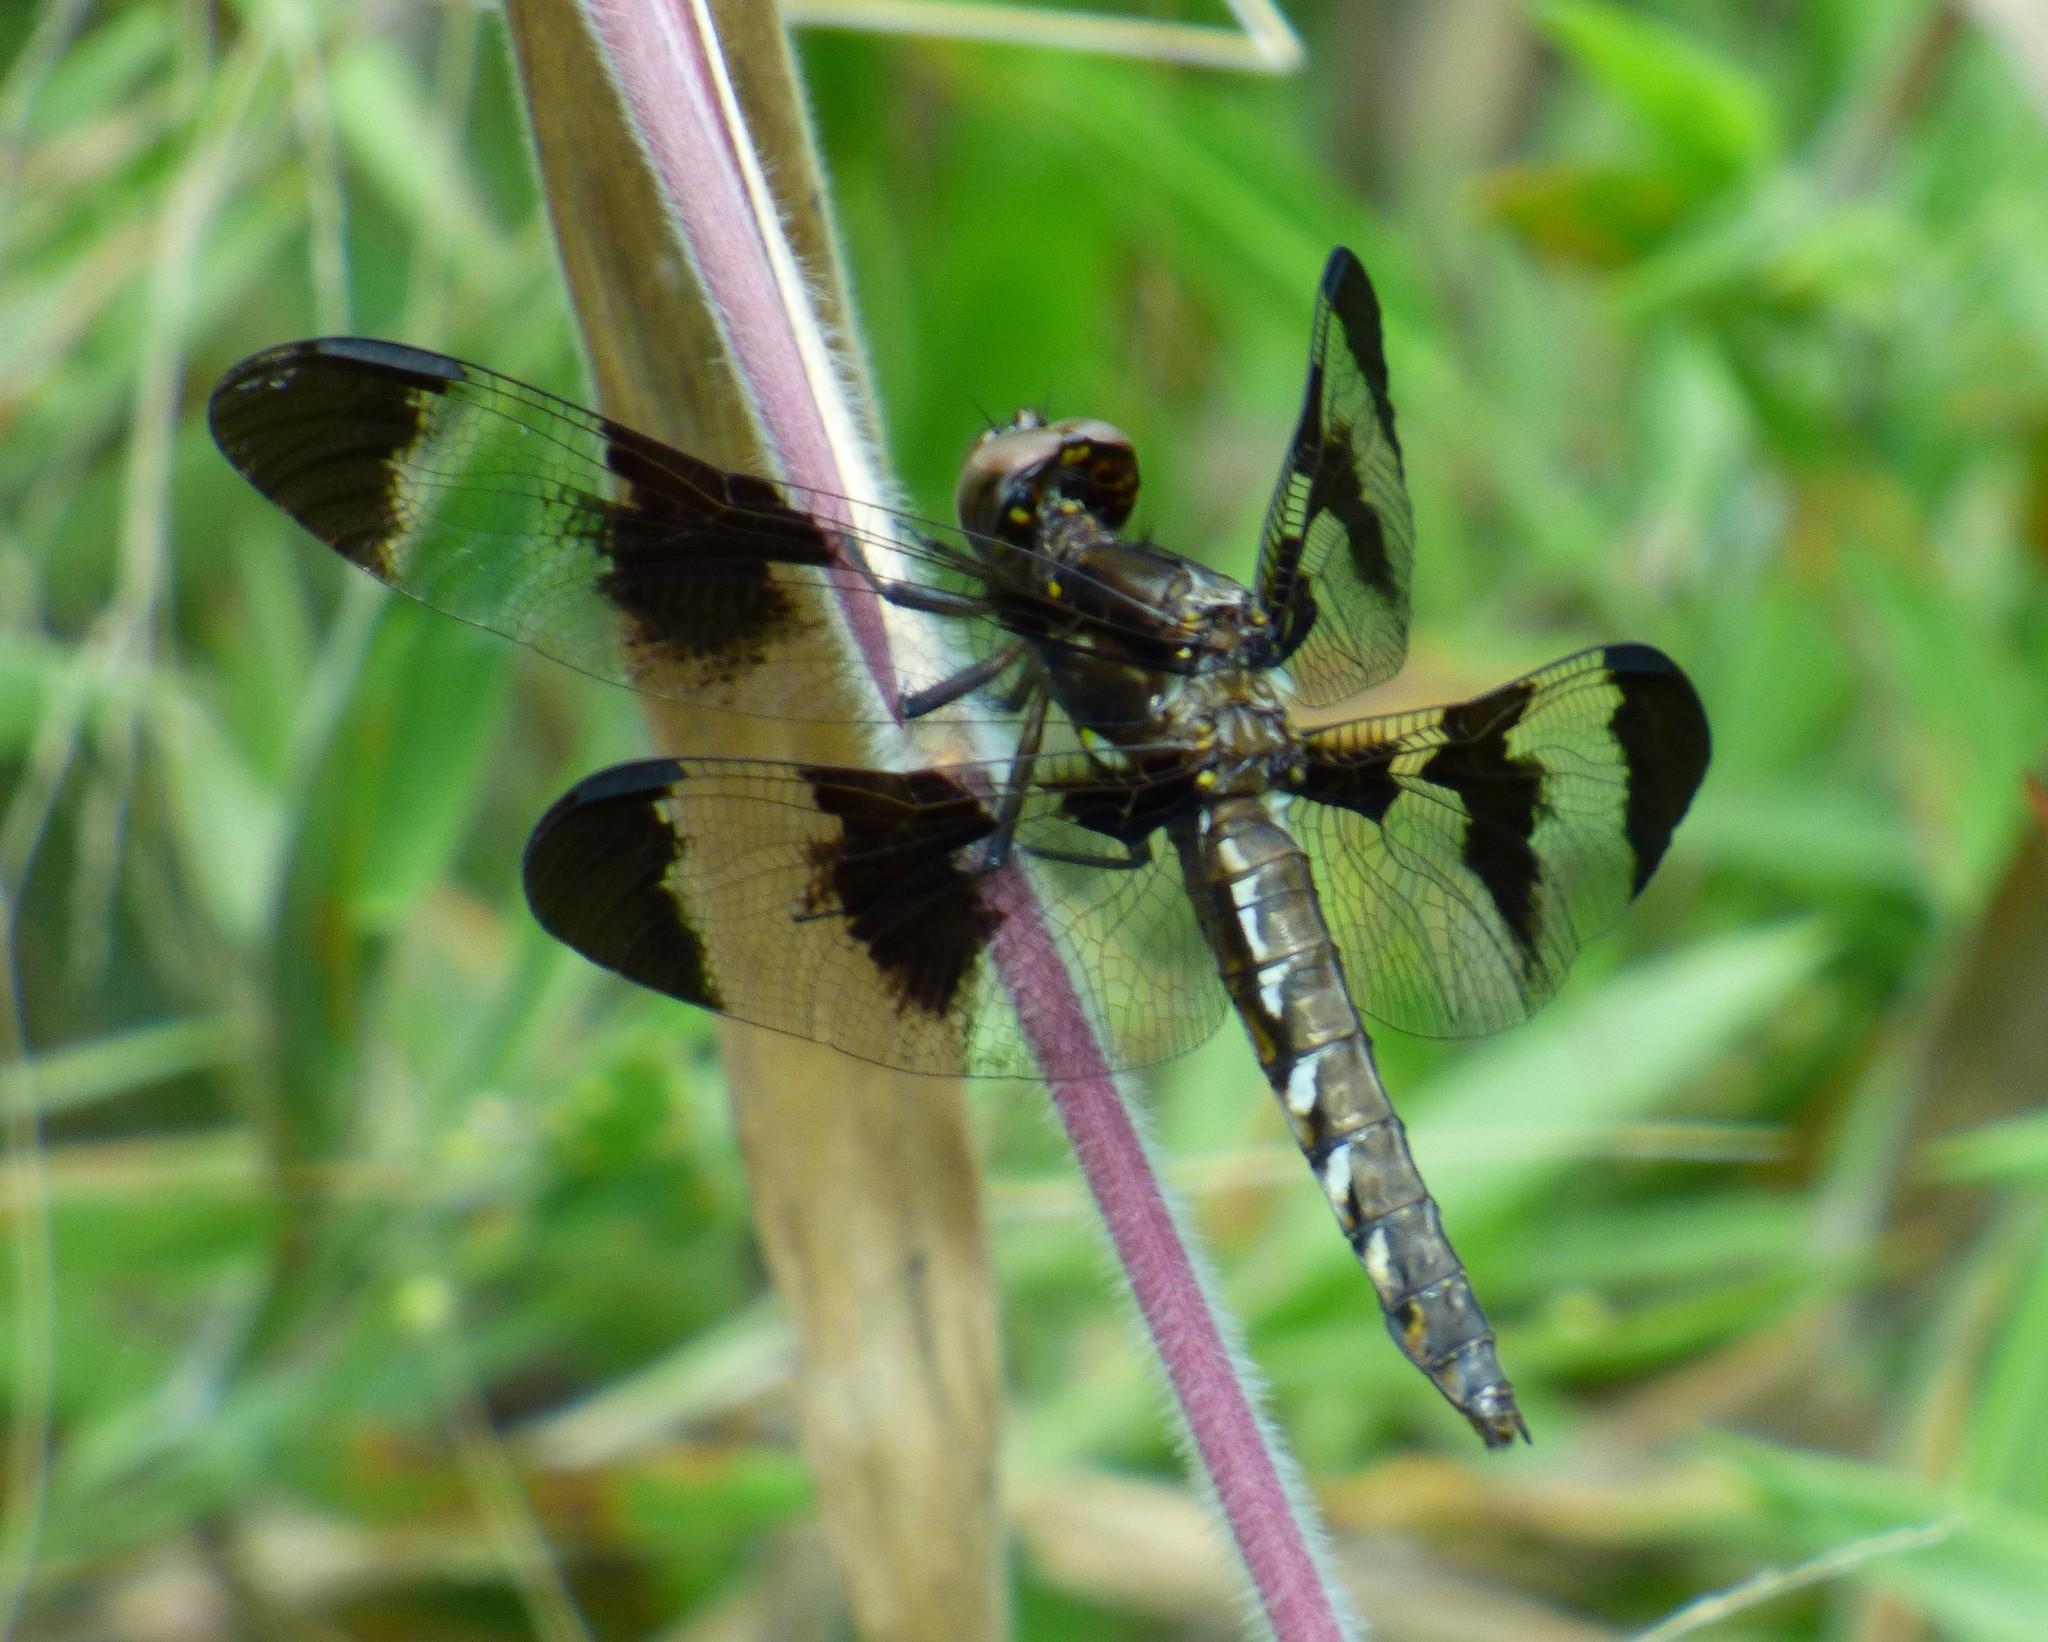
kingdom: Animalia
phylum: Arthropoda
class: Insecta
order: Odonata
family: Libellulidae
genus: Plathemis
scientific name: Plathemis lydia
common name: Common whitetail
